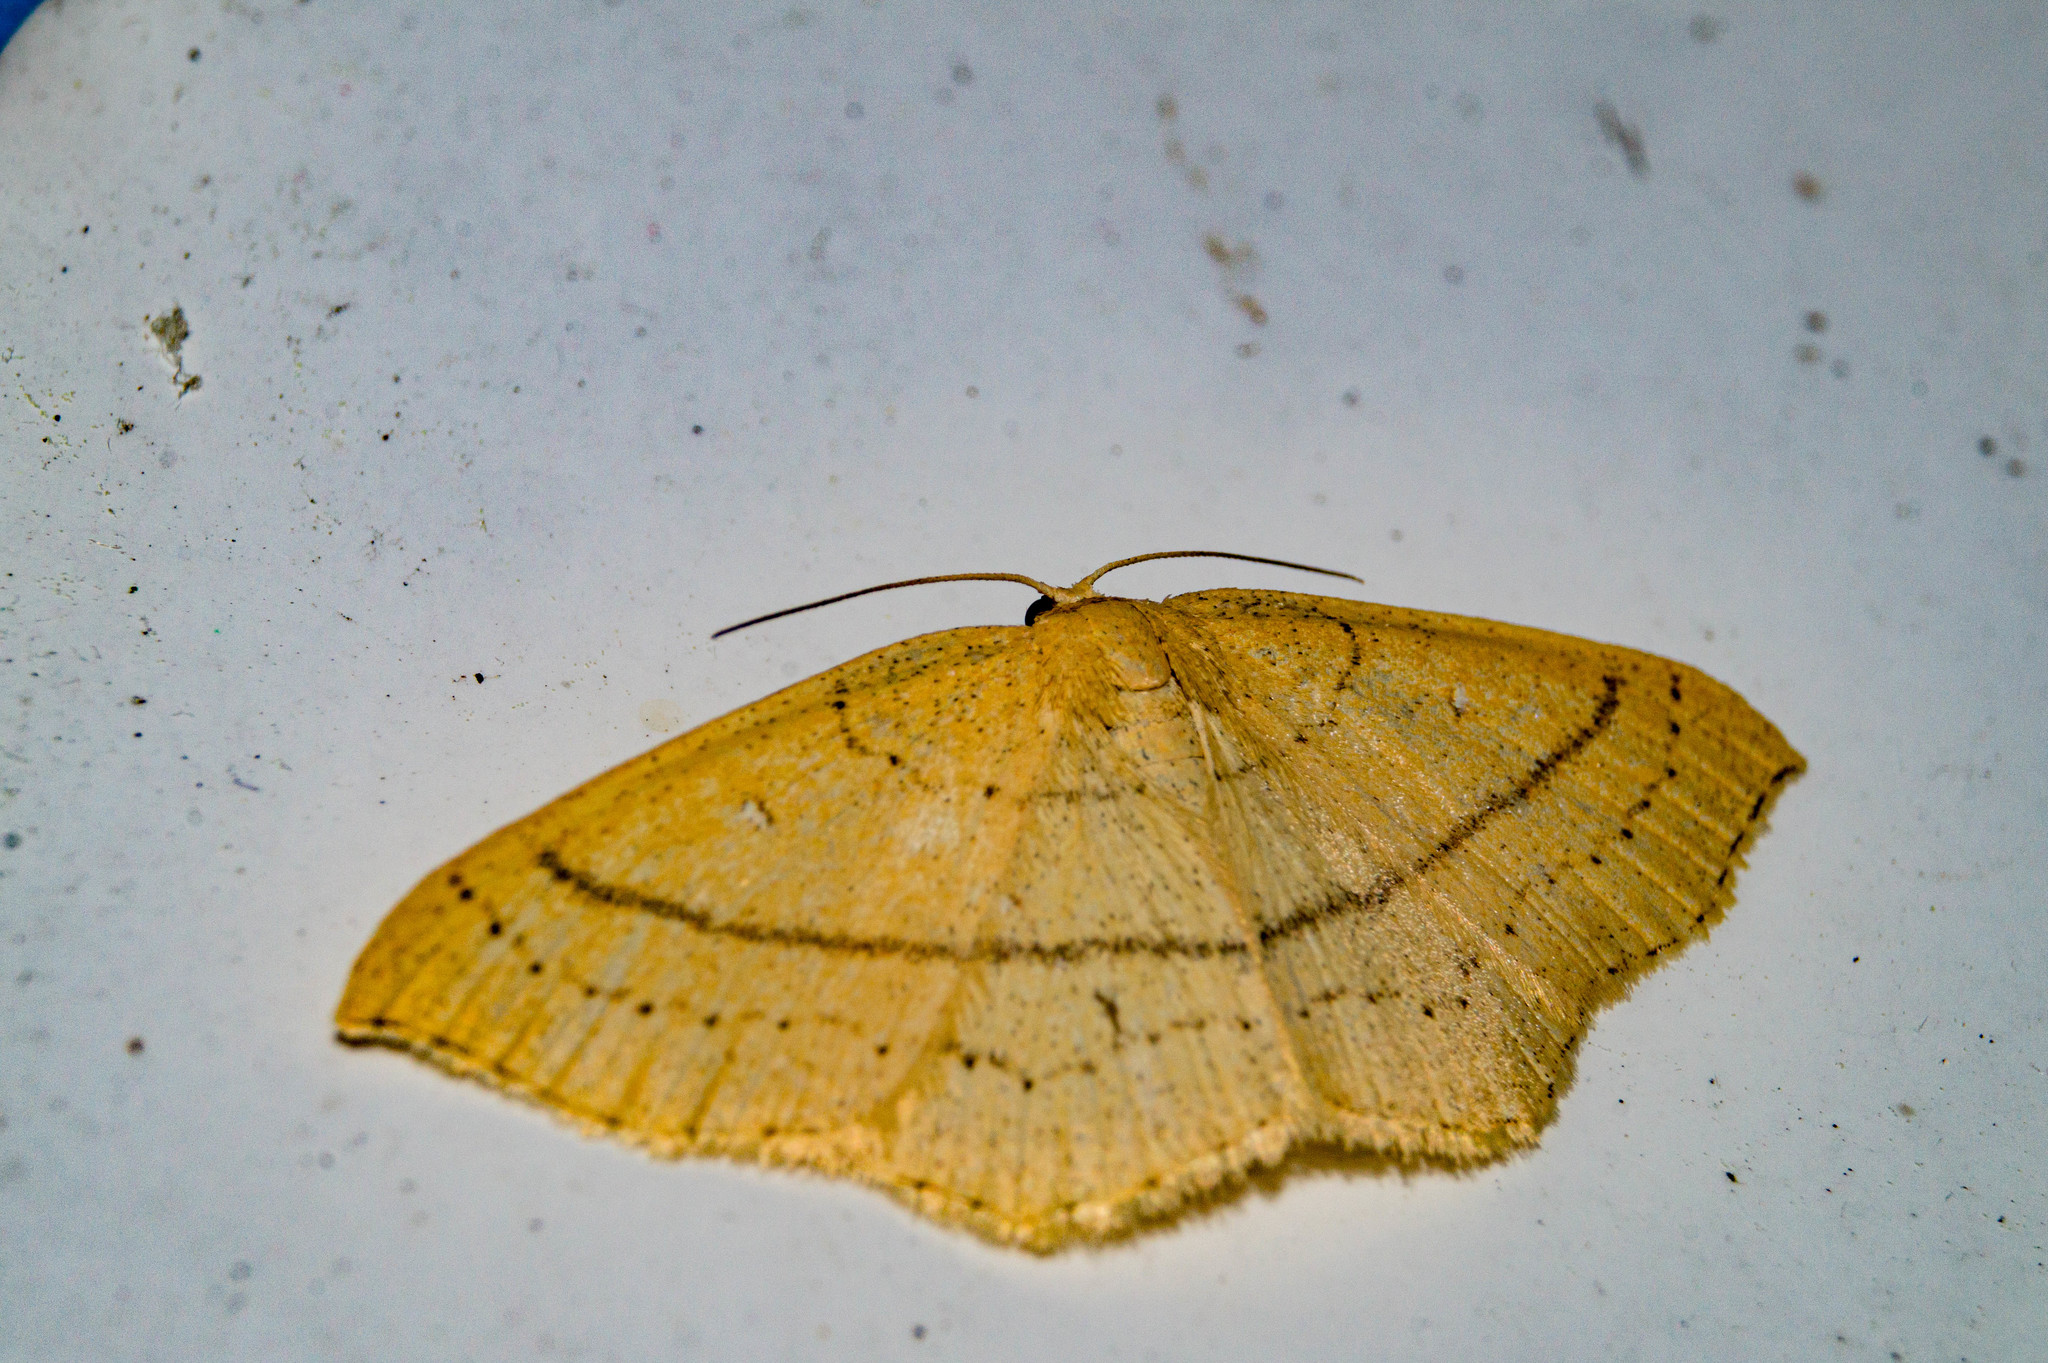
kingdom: Animalia
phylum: Arthropoda
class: Insecta
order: Lepidoptera
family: Geometridae
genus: Cyclophora
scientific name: Cyclophora linearia
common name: Clay triple-lines
